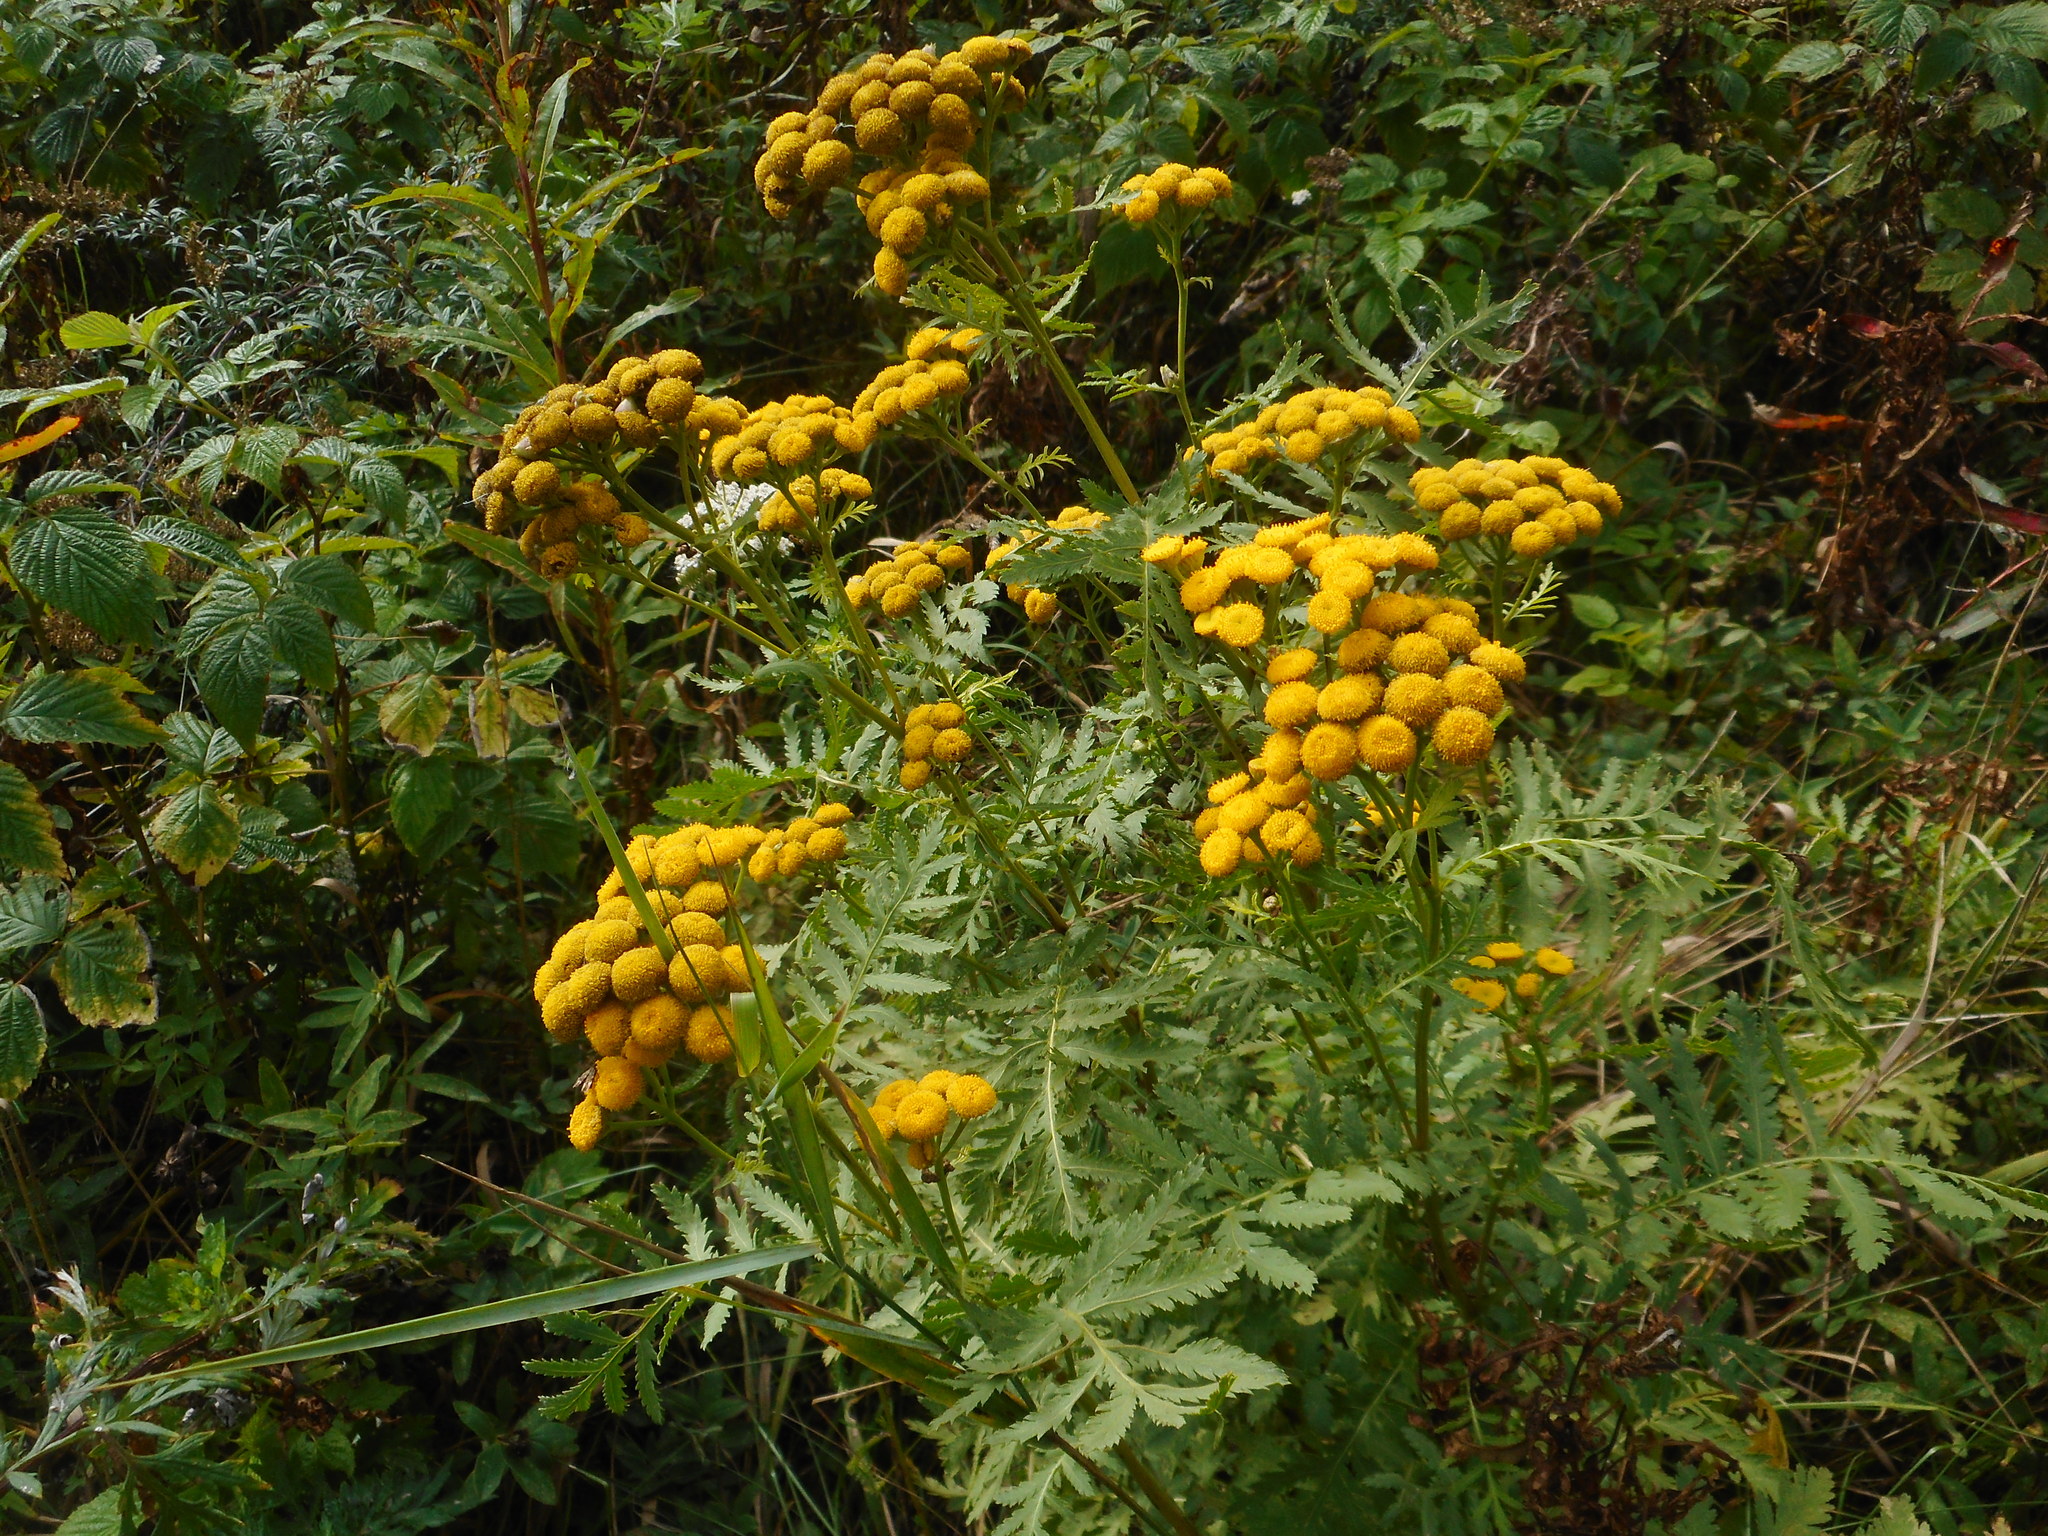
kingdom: Plantae
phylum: Tracheophyta
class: Magnoliopsida
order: Asterales
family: Asteraceae
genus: Tanacetum
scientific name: Tanacetum vulgare
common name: Common tansy
